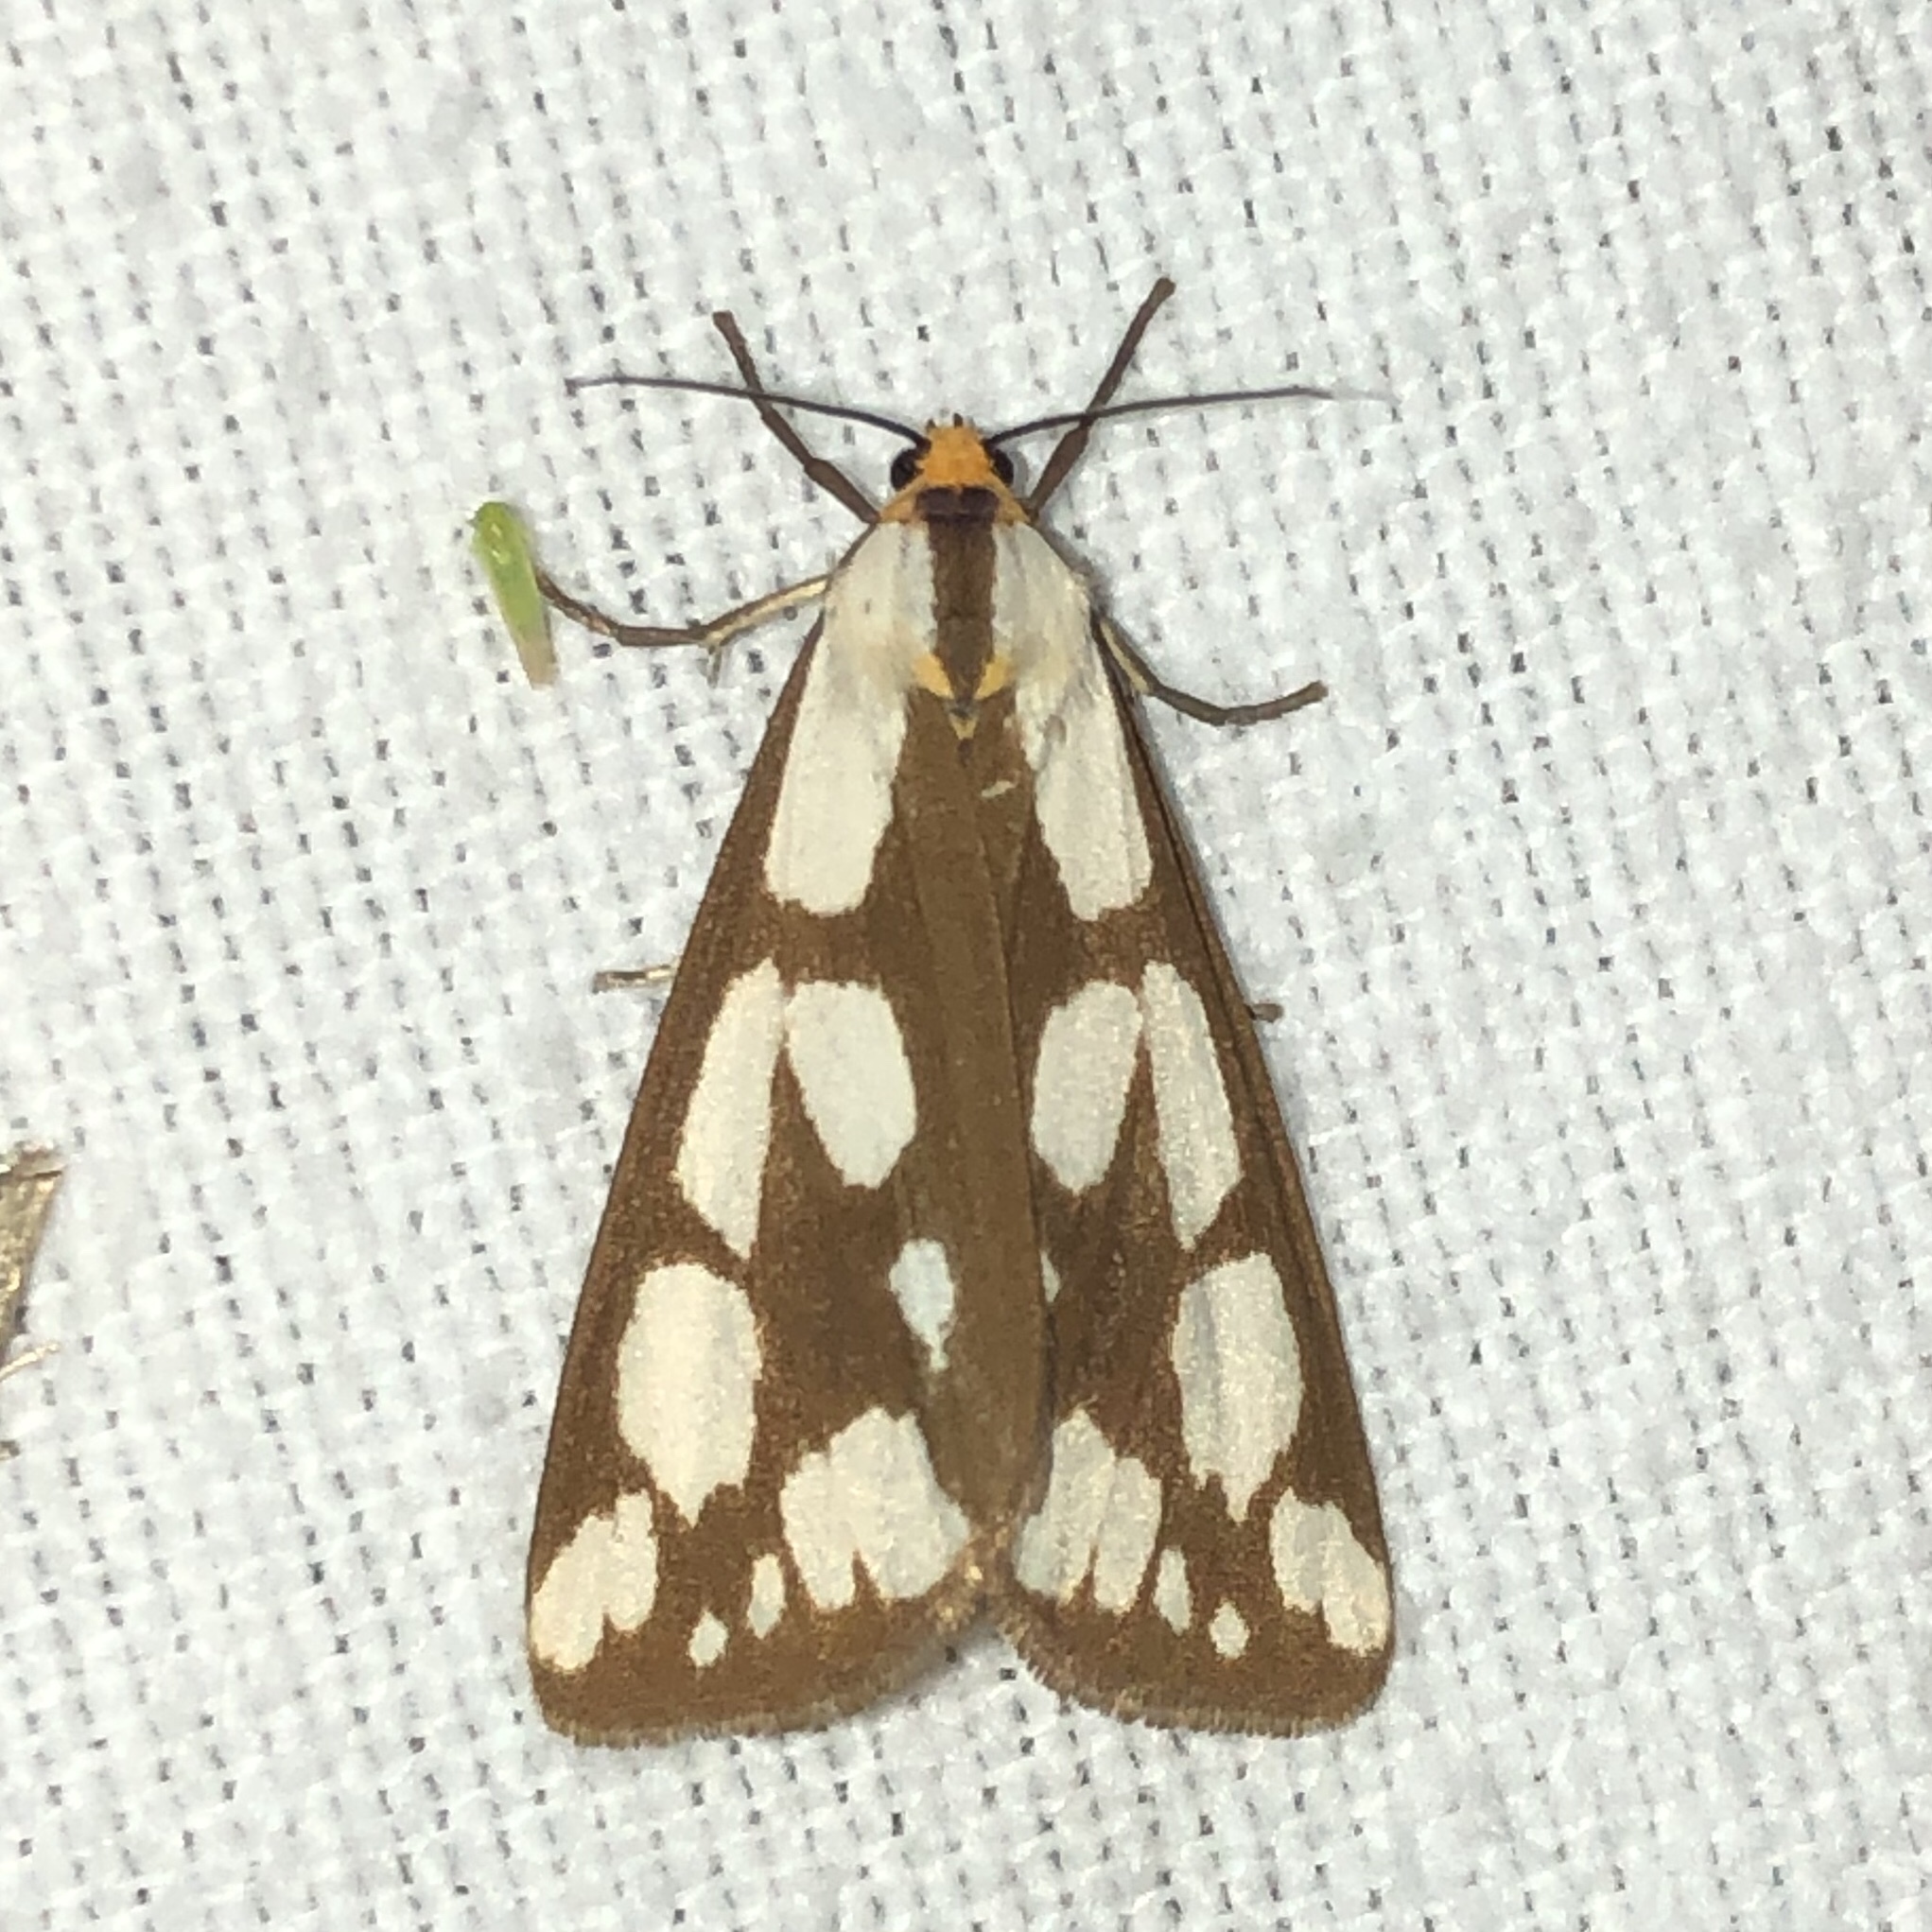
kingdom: Animalia
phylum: Arthropoda
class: Insecta
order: Lepidoptera
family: Erebidae
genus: Haploa
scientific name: Haploa confusa
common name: Confused haploa moth
